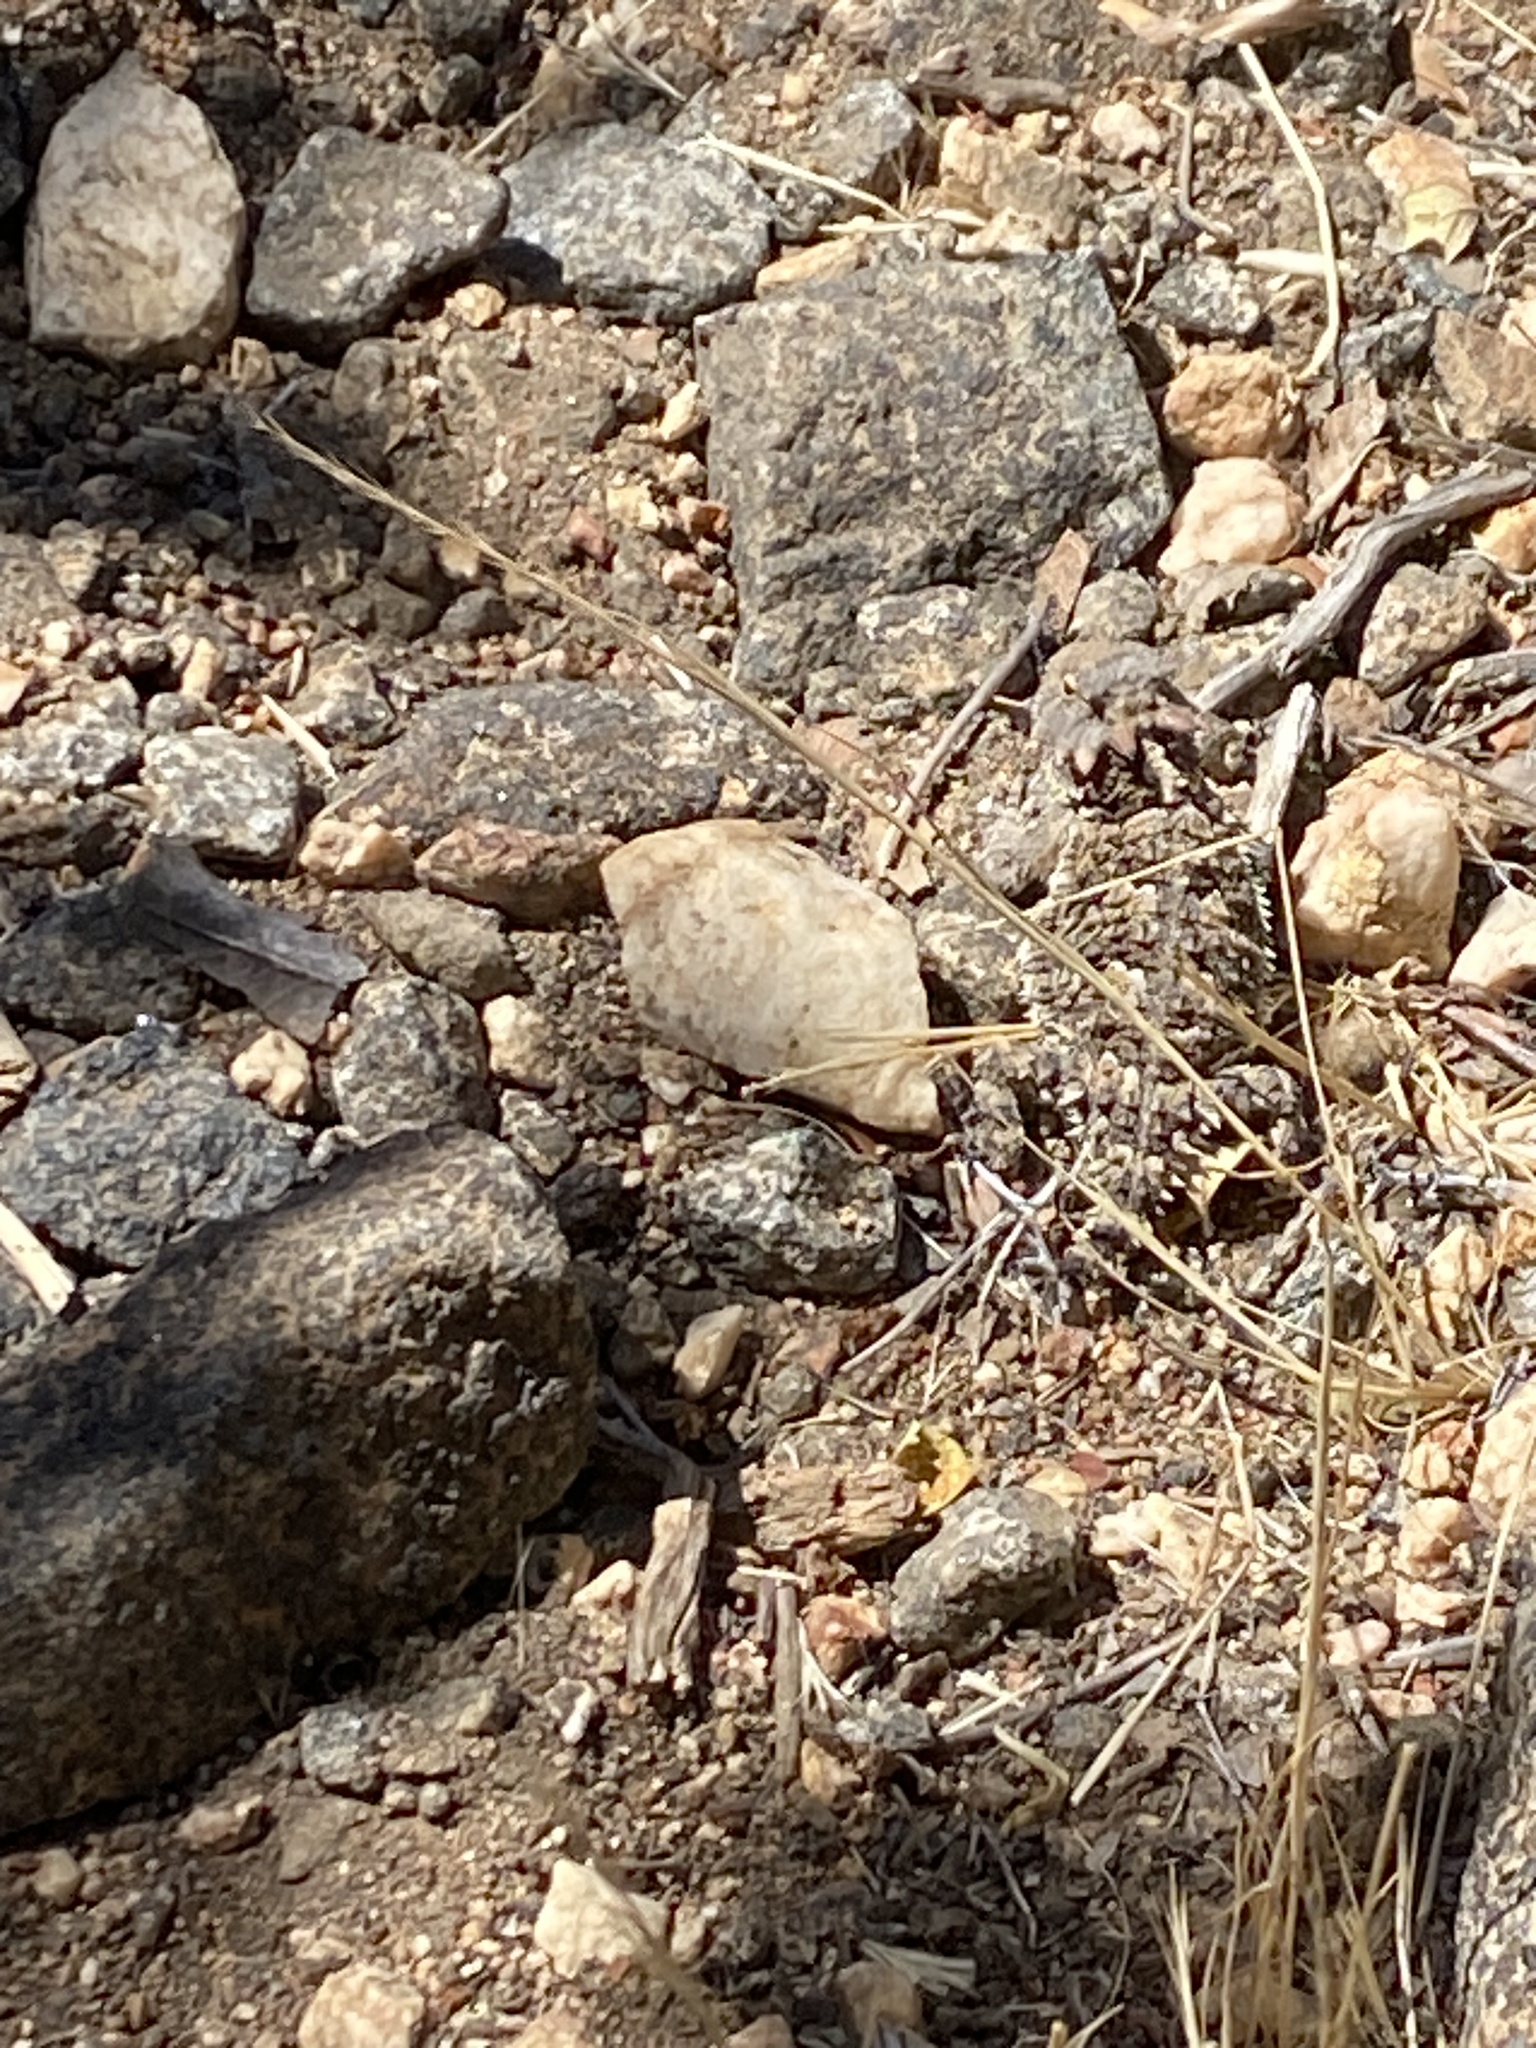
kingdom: Animalia
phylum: Chordata
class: Squamata
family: Phrynosomatidae
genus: Phrynosoma
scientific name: Phrynosoma blainvillii
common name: San diego horned lizard
